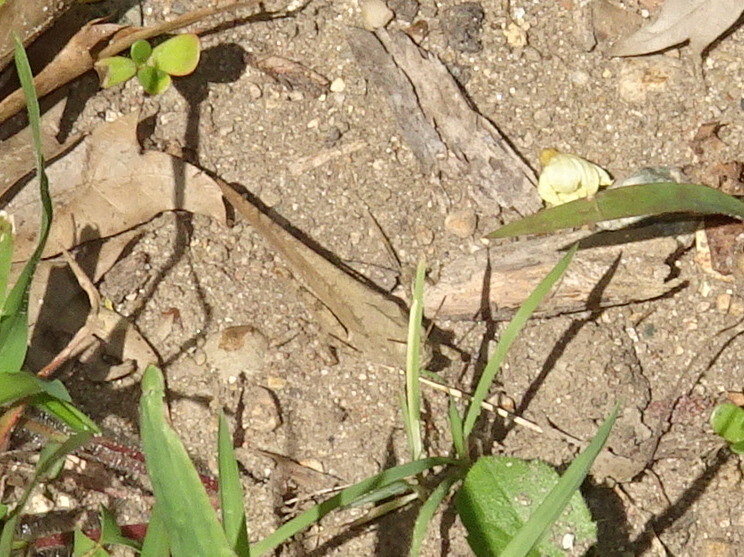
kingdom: Animalia
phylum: Arthropoda
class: Insecta
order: Orthoptera
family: Acrididae
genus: Dissosteira
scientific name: Dissosteira carolina
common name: Carolina grasshopper
